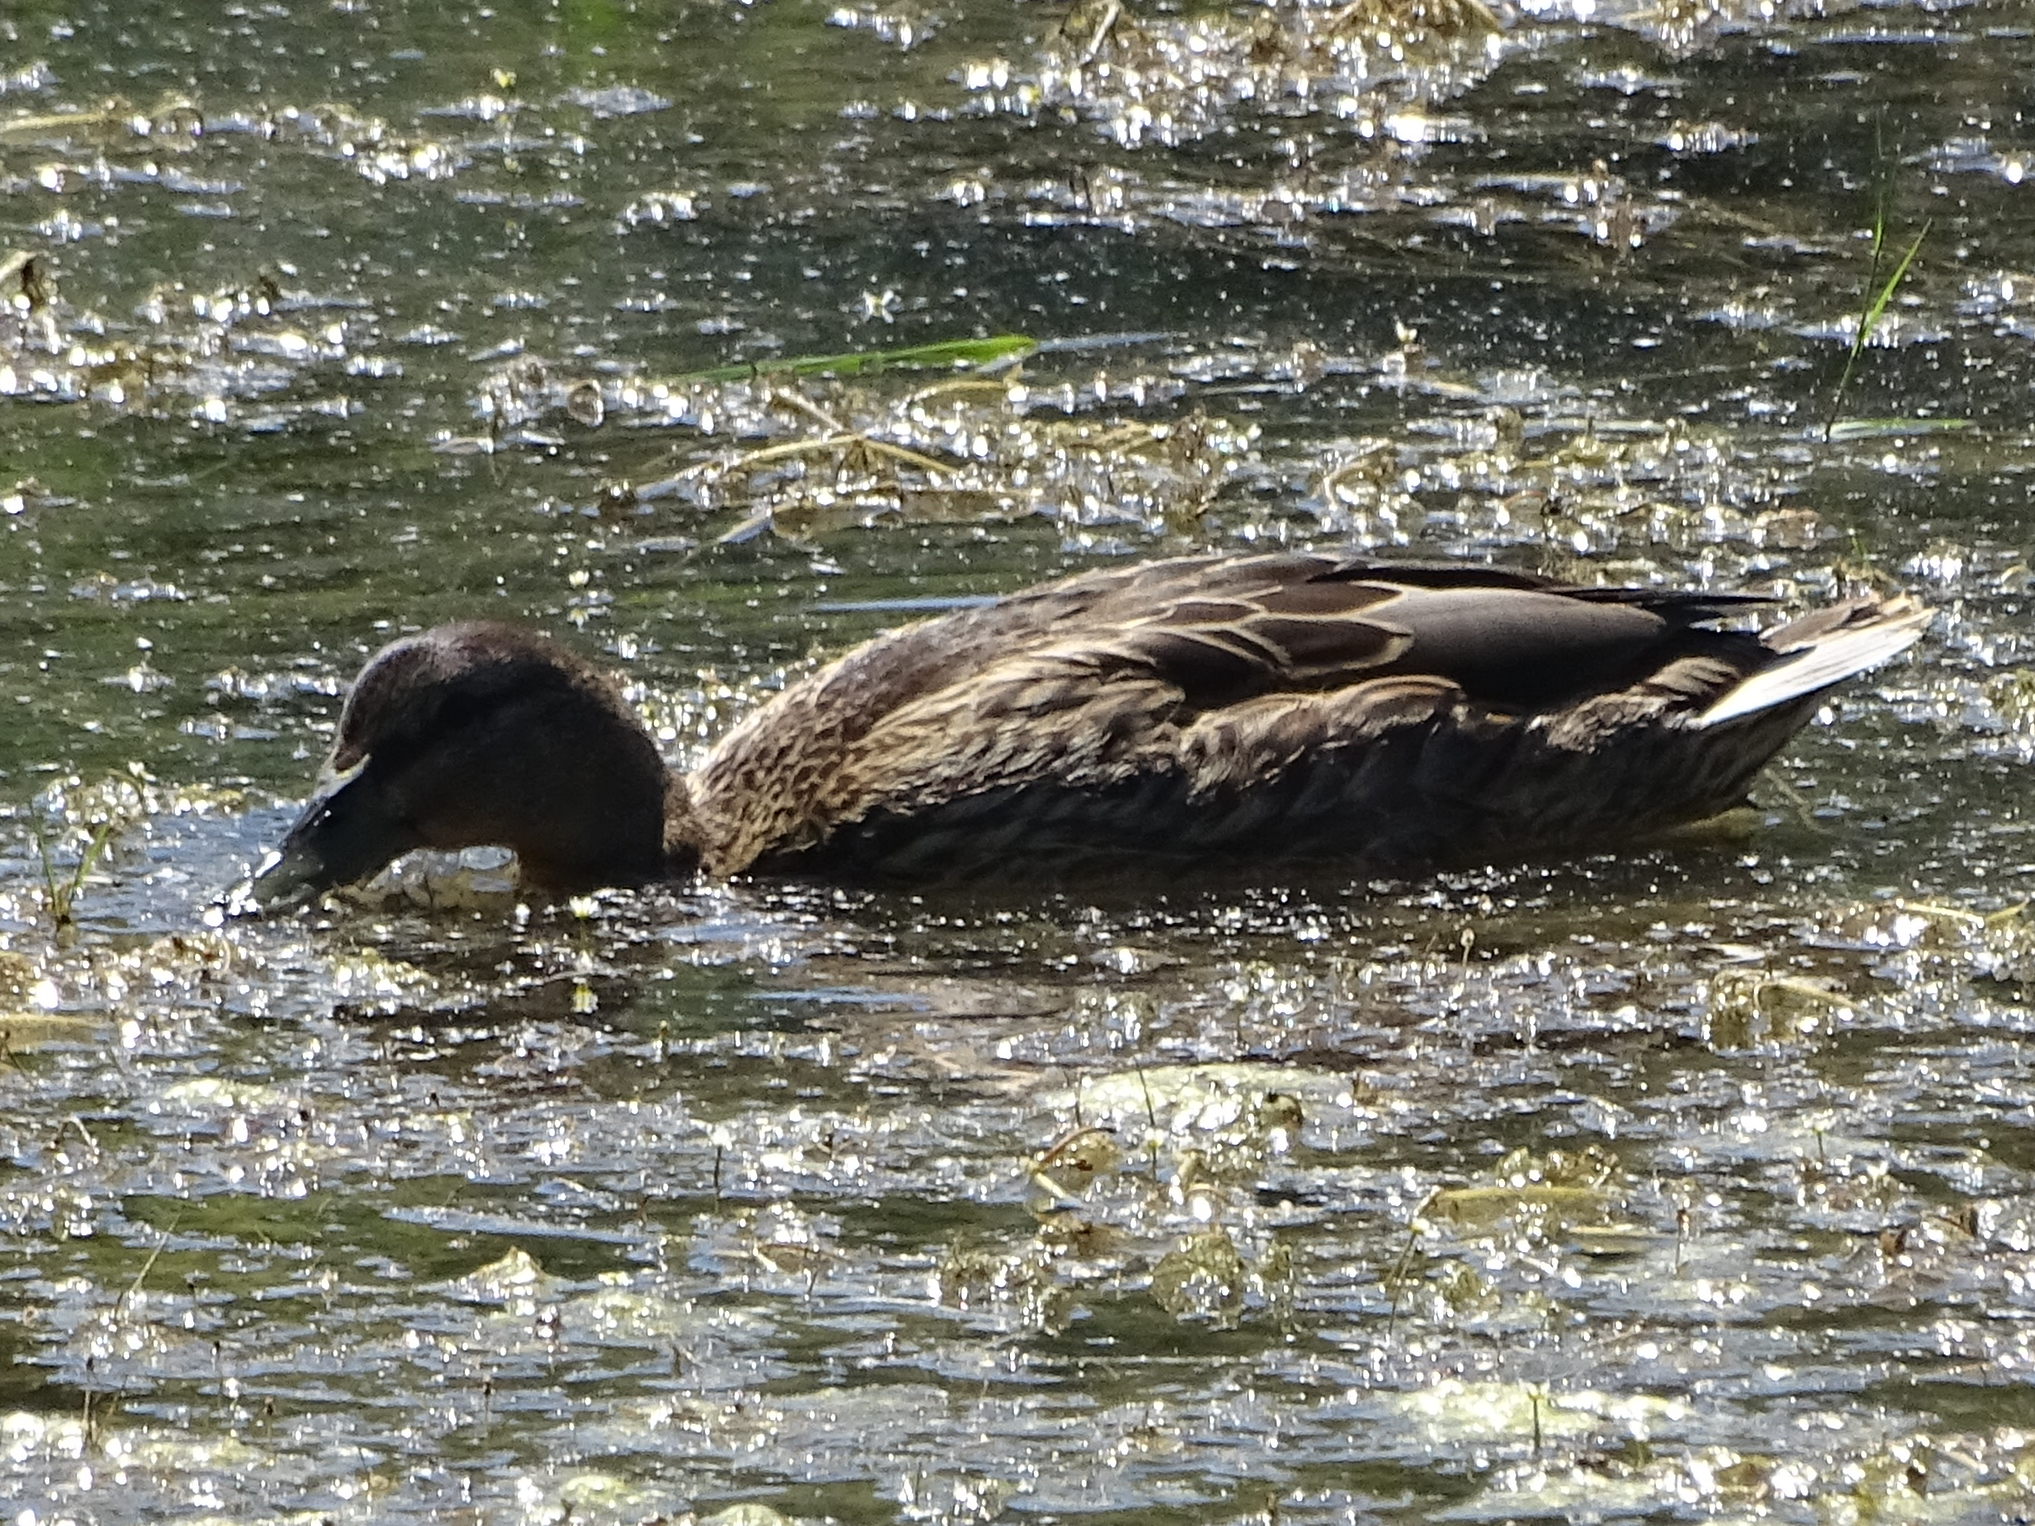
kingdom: Animalia
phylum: Chordata
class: Aves
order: Anseriformes
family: Anatidae
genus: Anas
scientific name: Anas platyrhynchos
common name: Mallard
